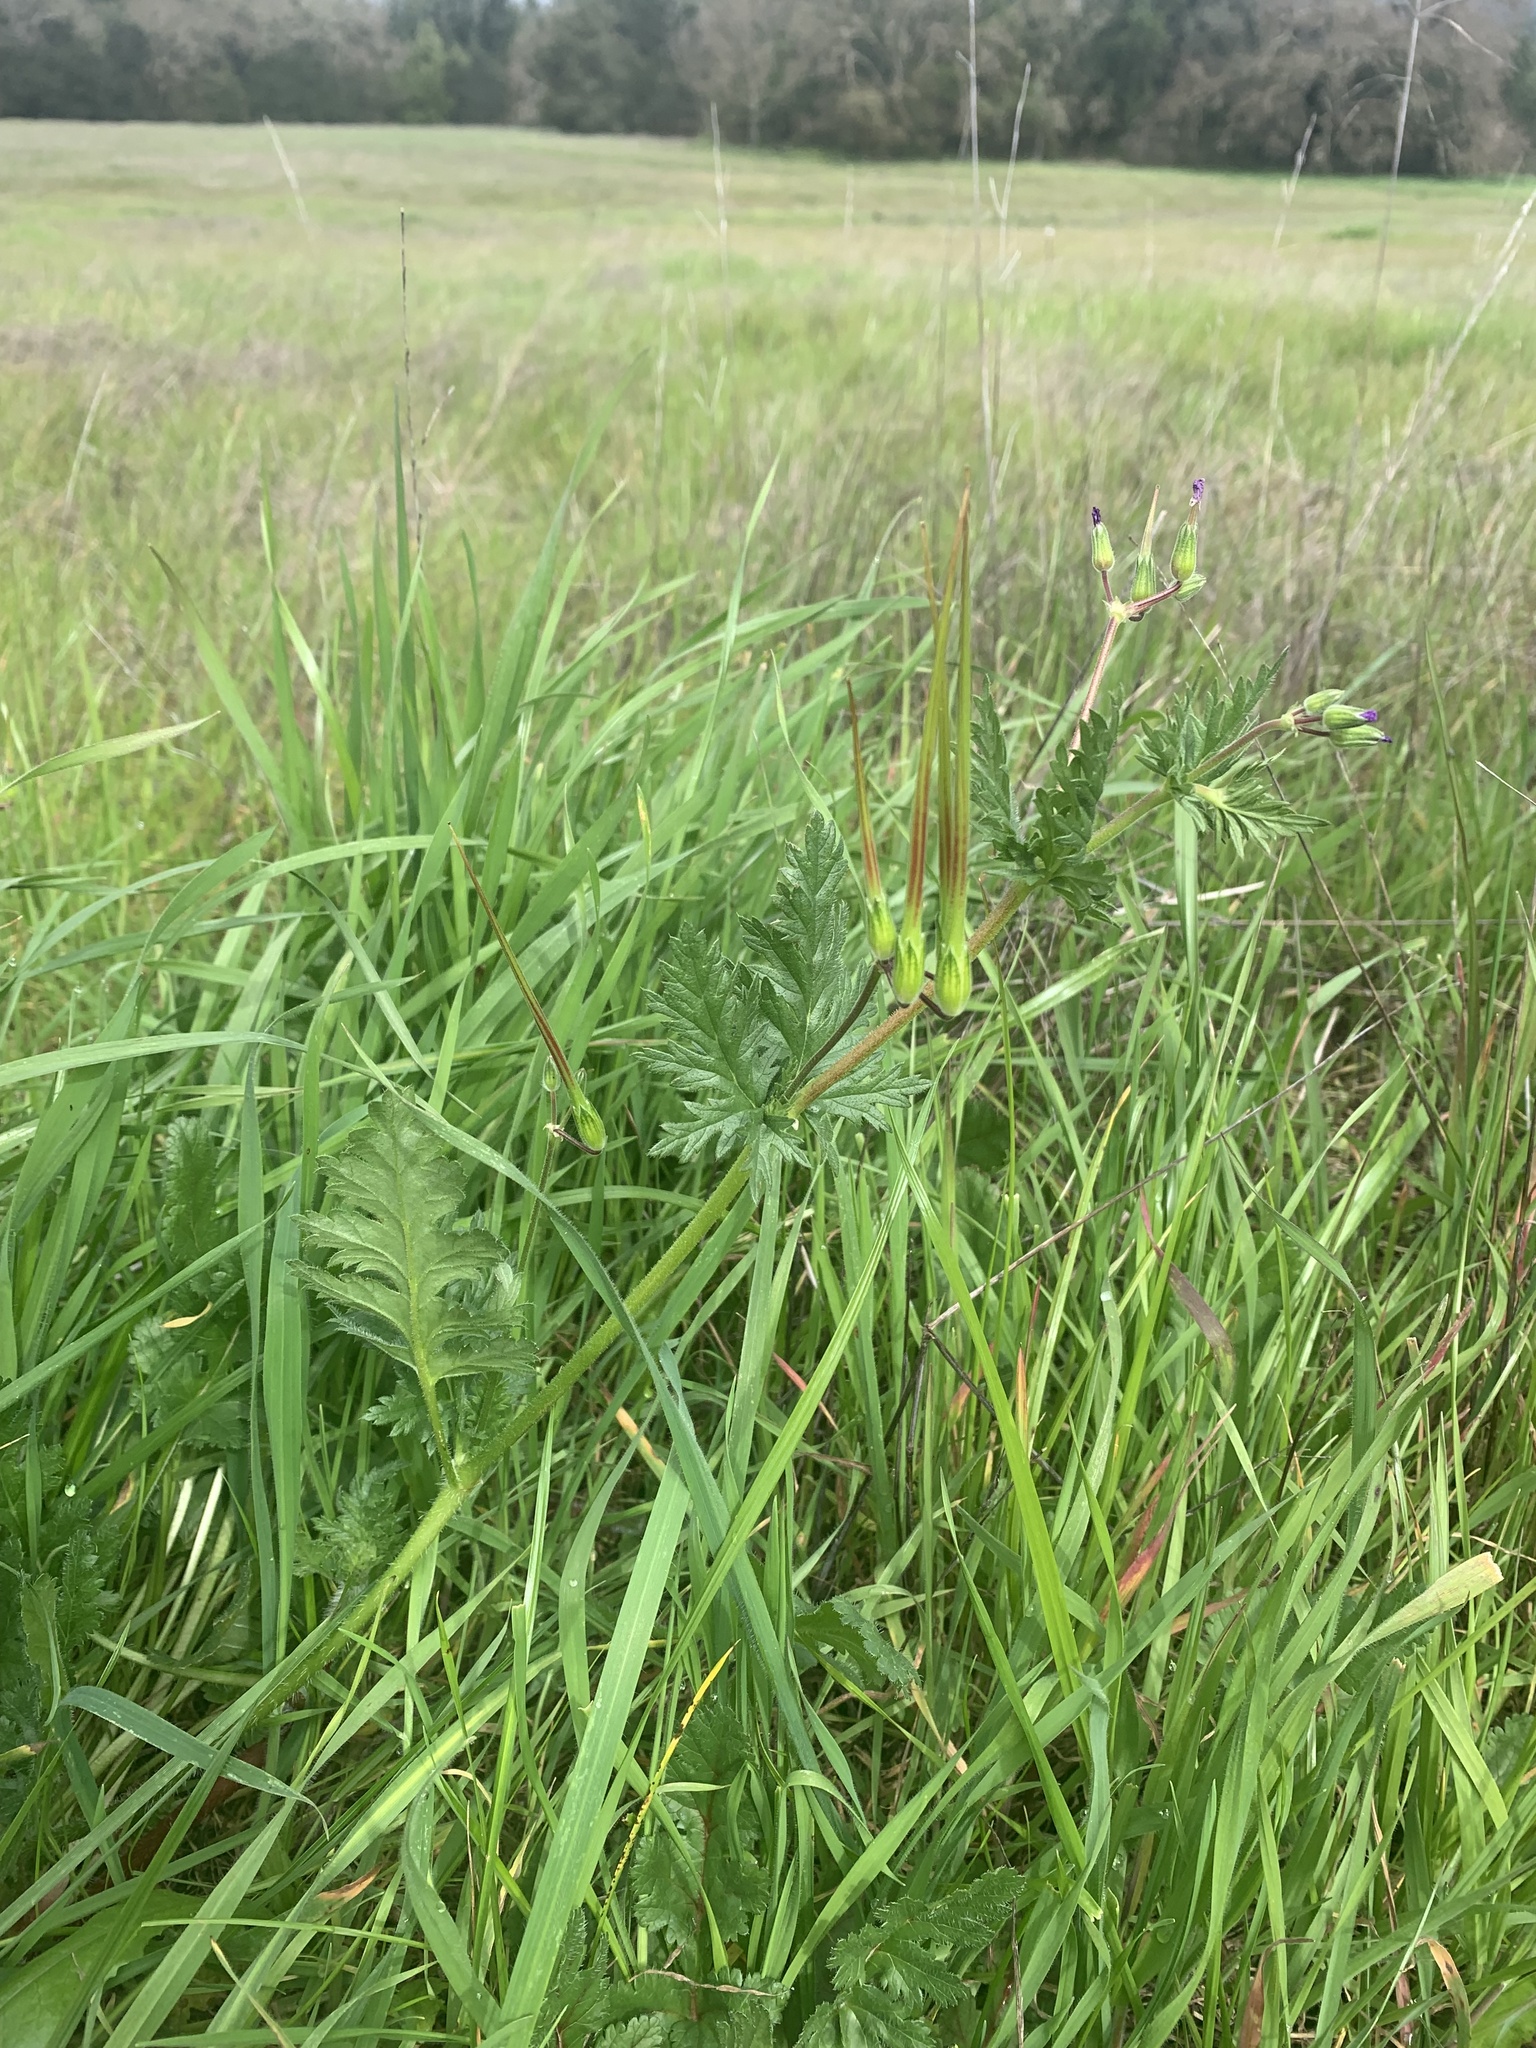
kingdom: Plantae
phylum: Tracheophyta
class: Magnoliopsida
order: Geraniales
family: Geraniaceae
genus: Erodium
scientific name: Erodium
